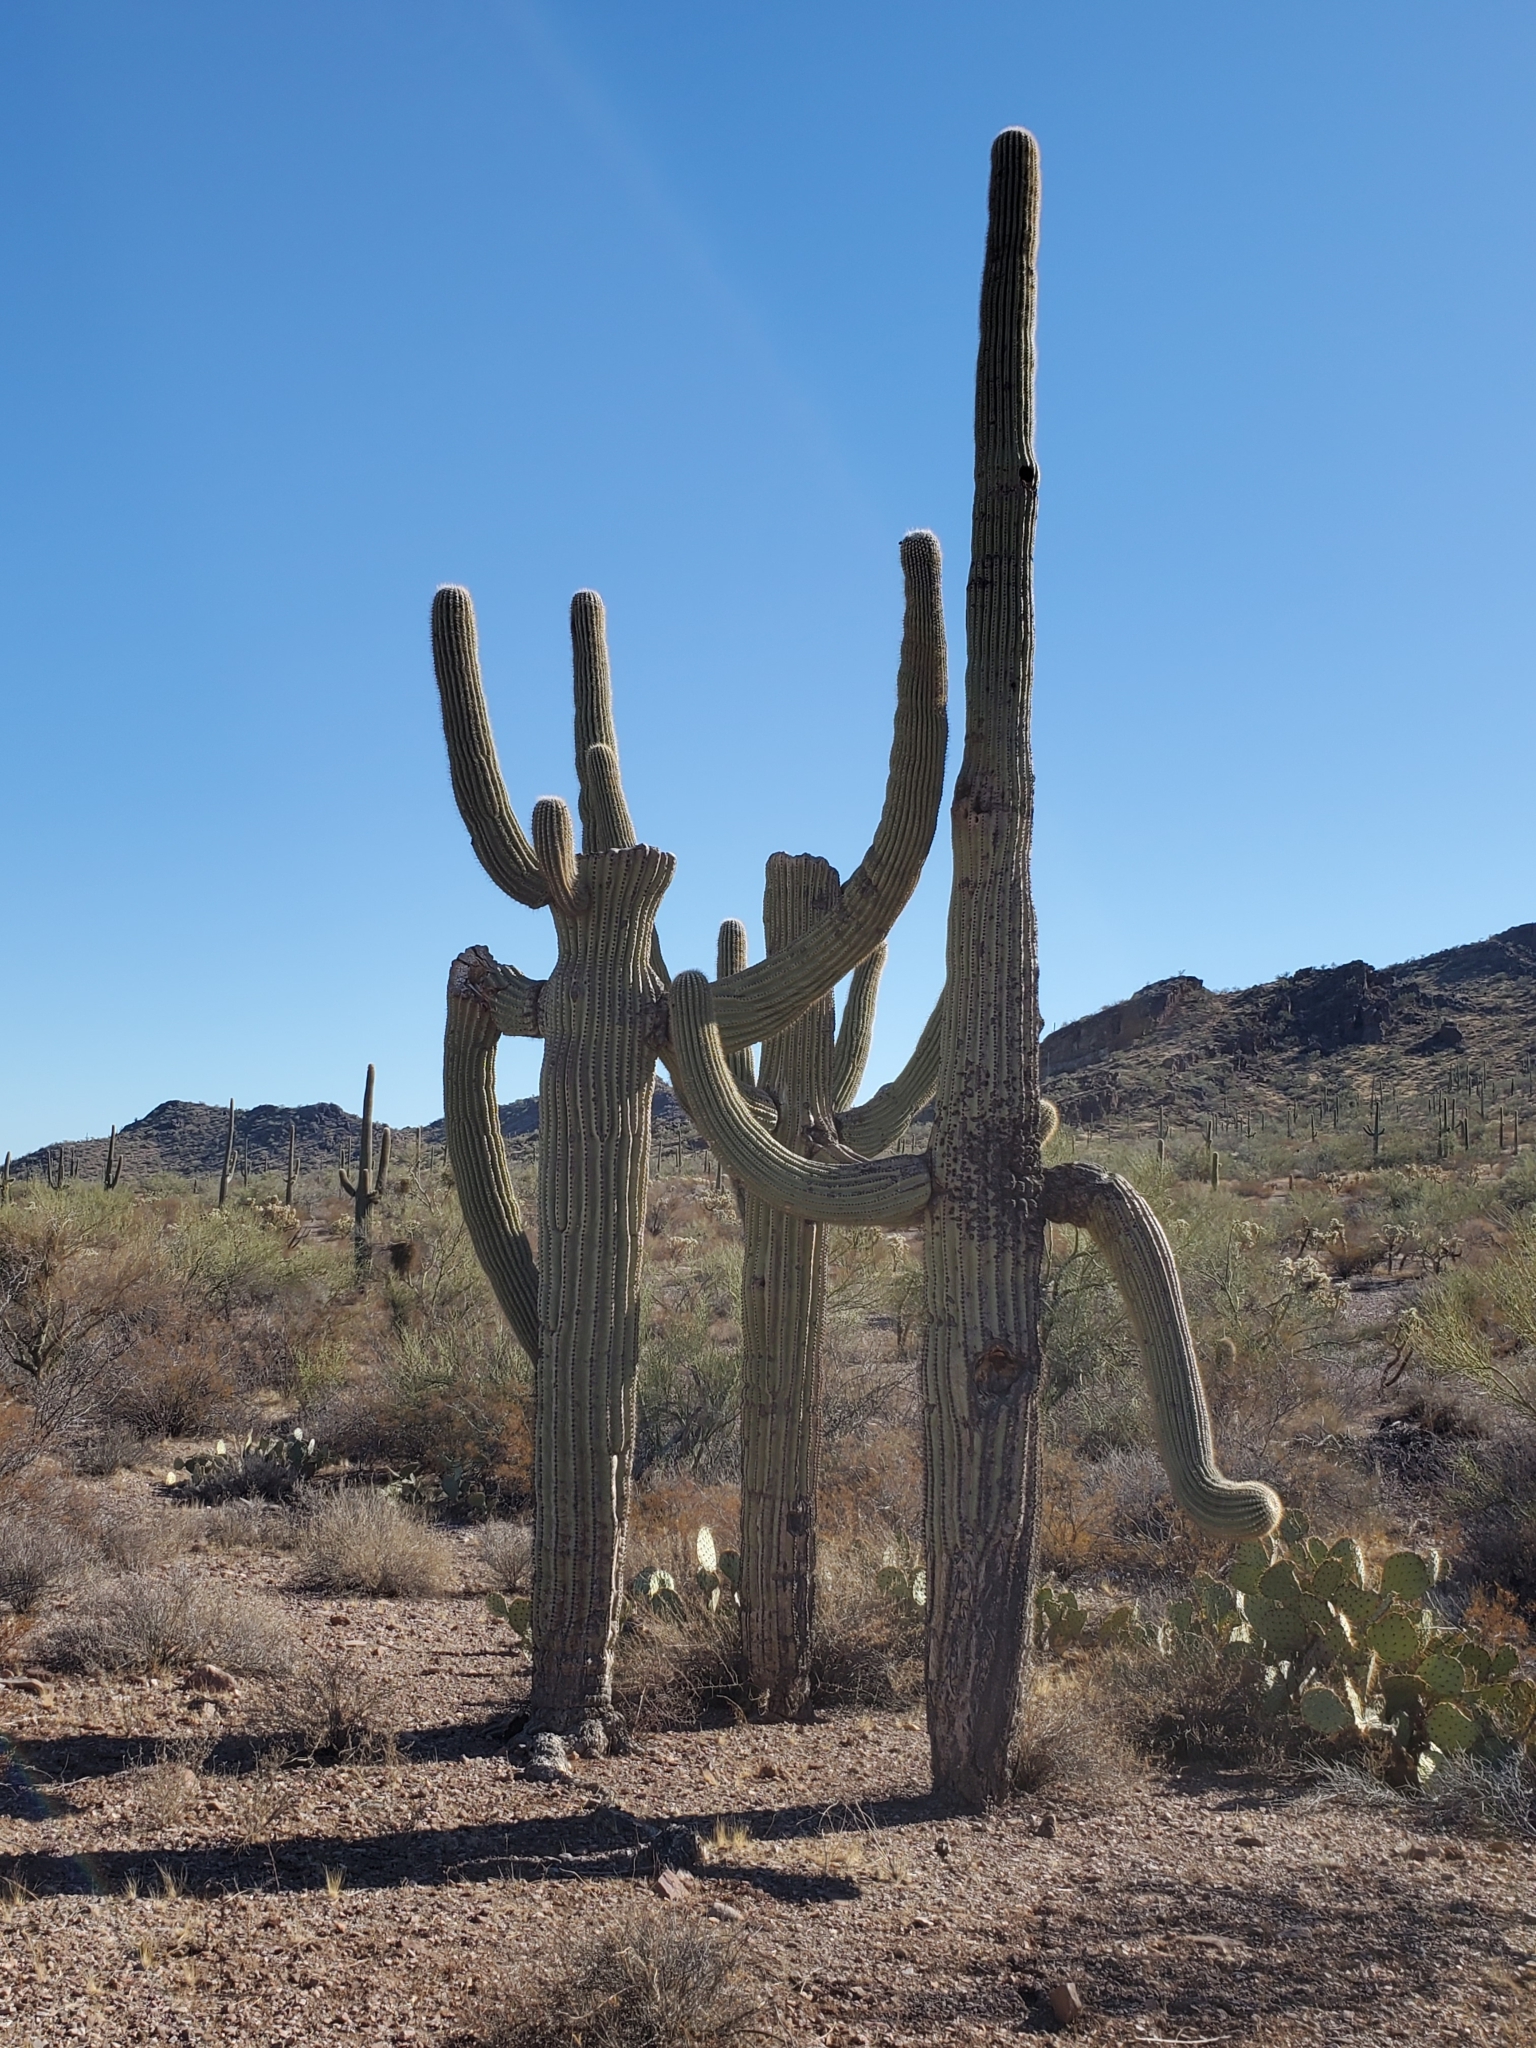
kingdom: Plantae
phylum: Tracheophyta
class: Magnoliopsida
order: Caryophyllales
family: Cactaceae
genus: Carnegiea
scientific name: Carnegiea gigantea
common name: Saguaro
